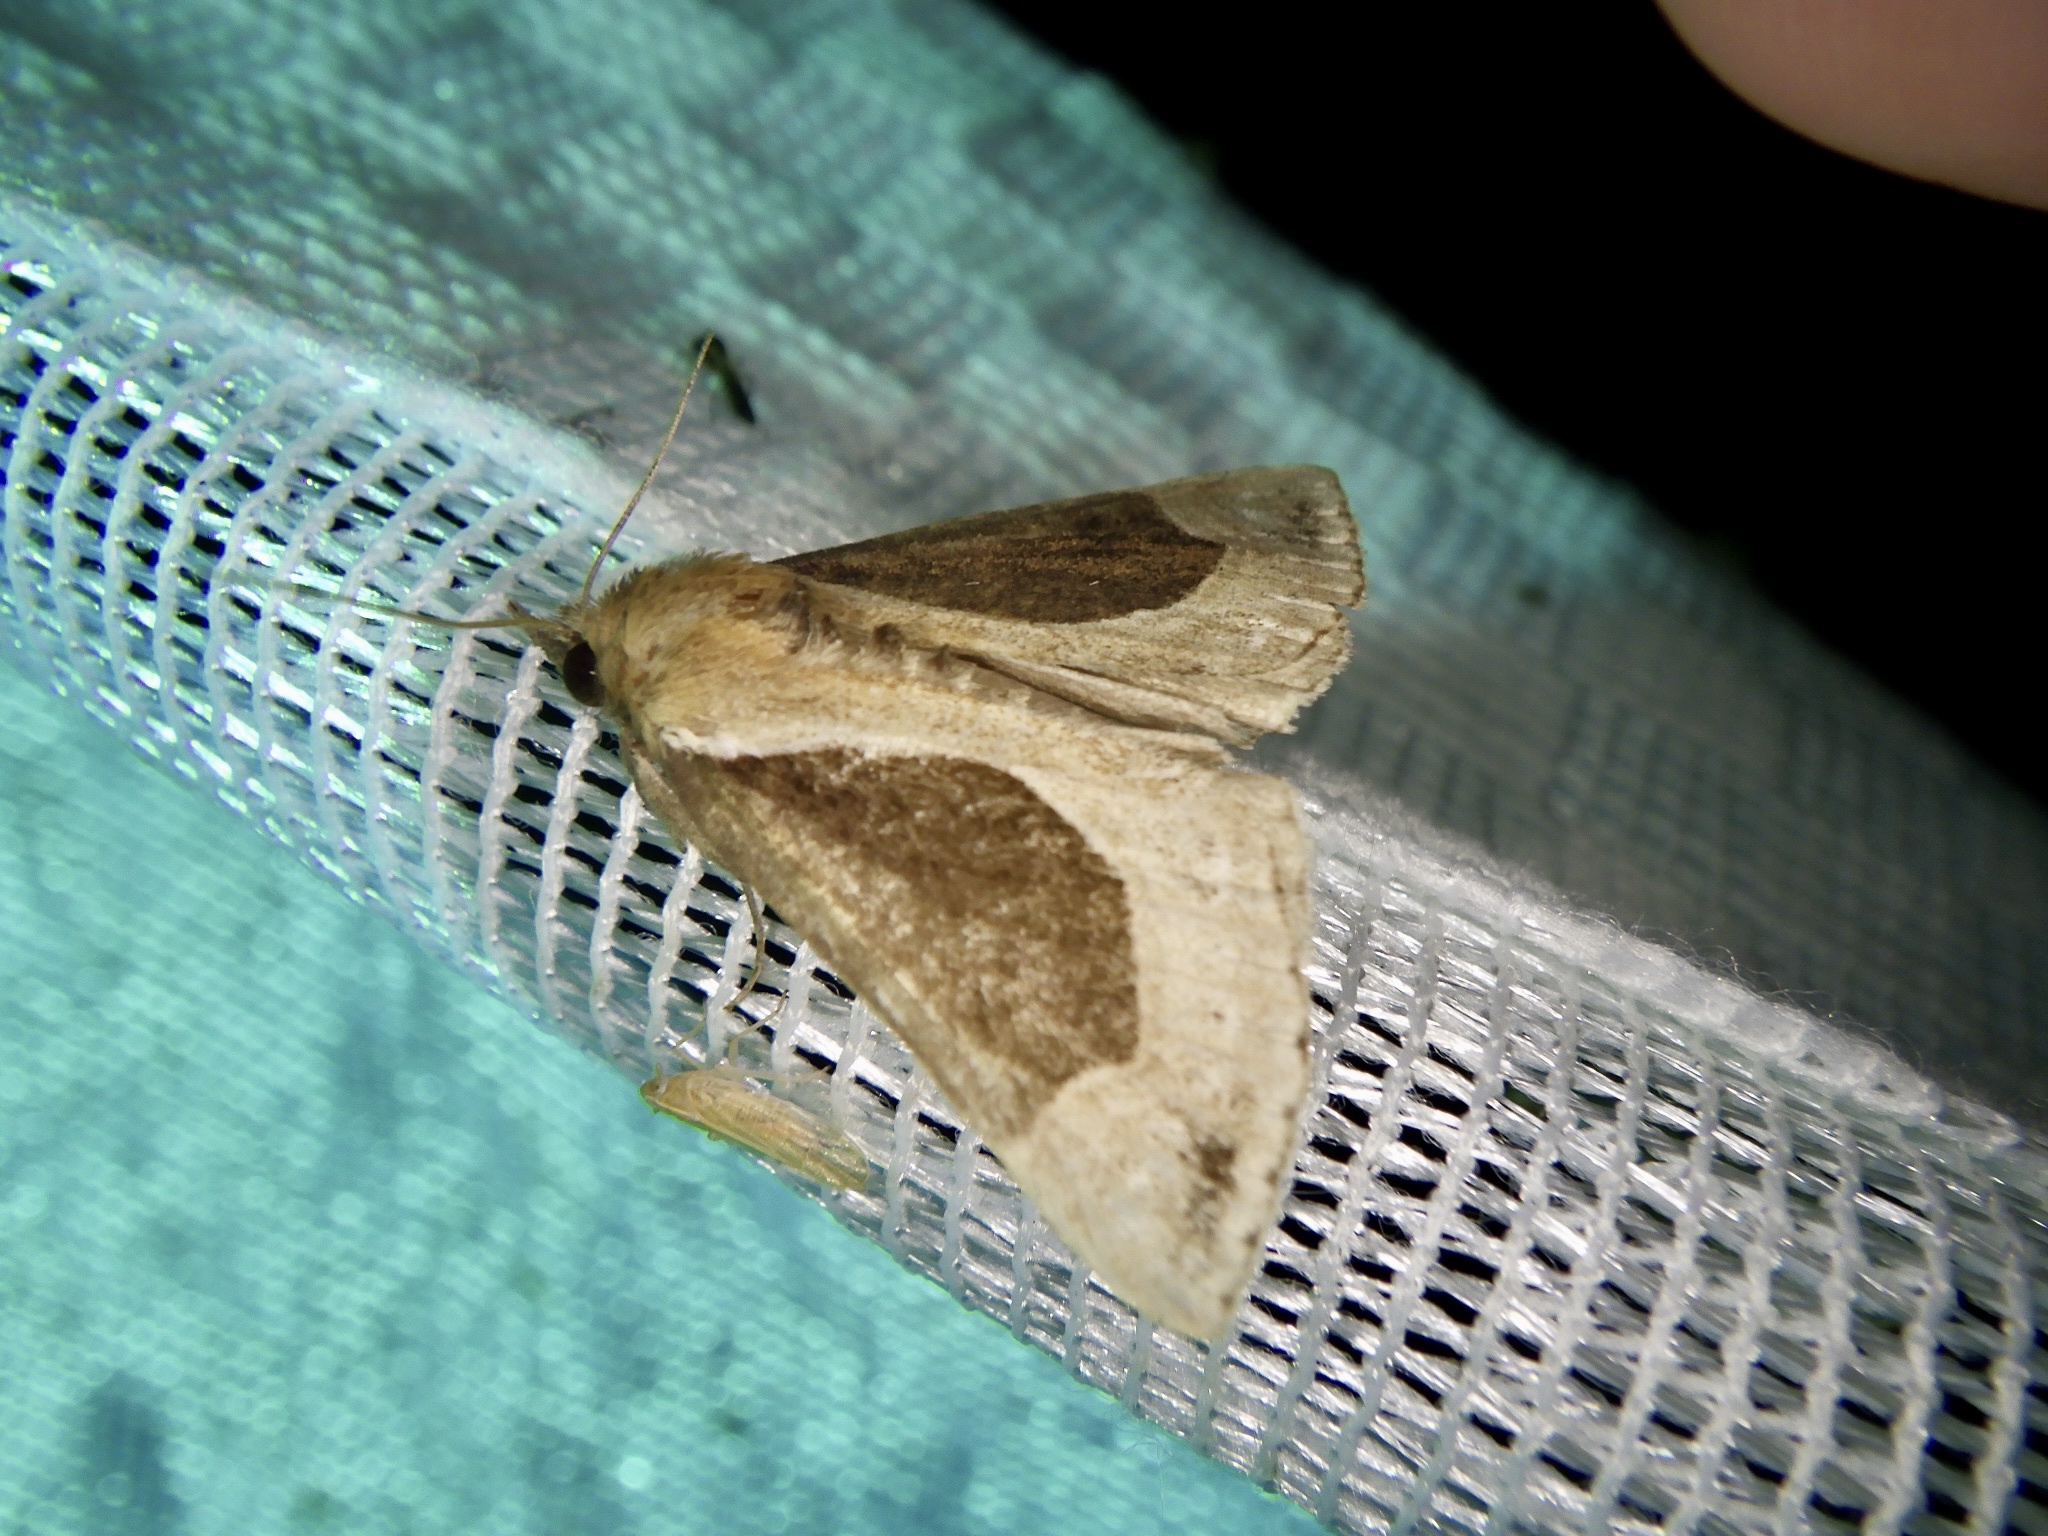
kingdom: Animalia
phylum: Arthropoda
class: Insecta
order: Lepidoptera
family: Erebidae
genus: Hypena
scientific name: Hypena mandarina
